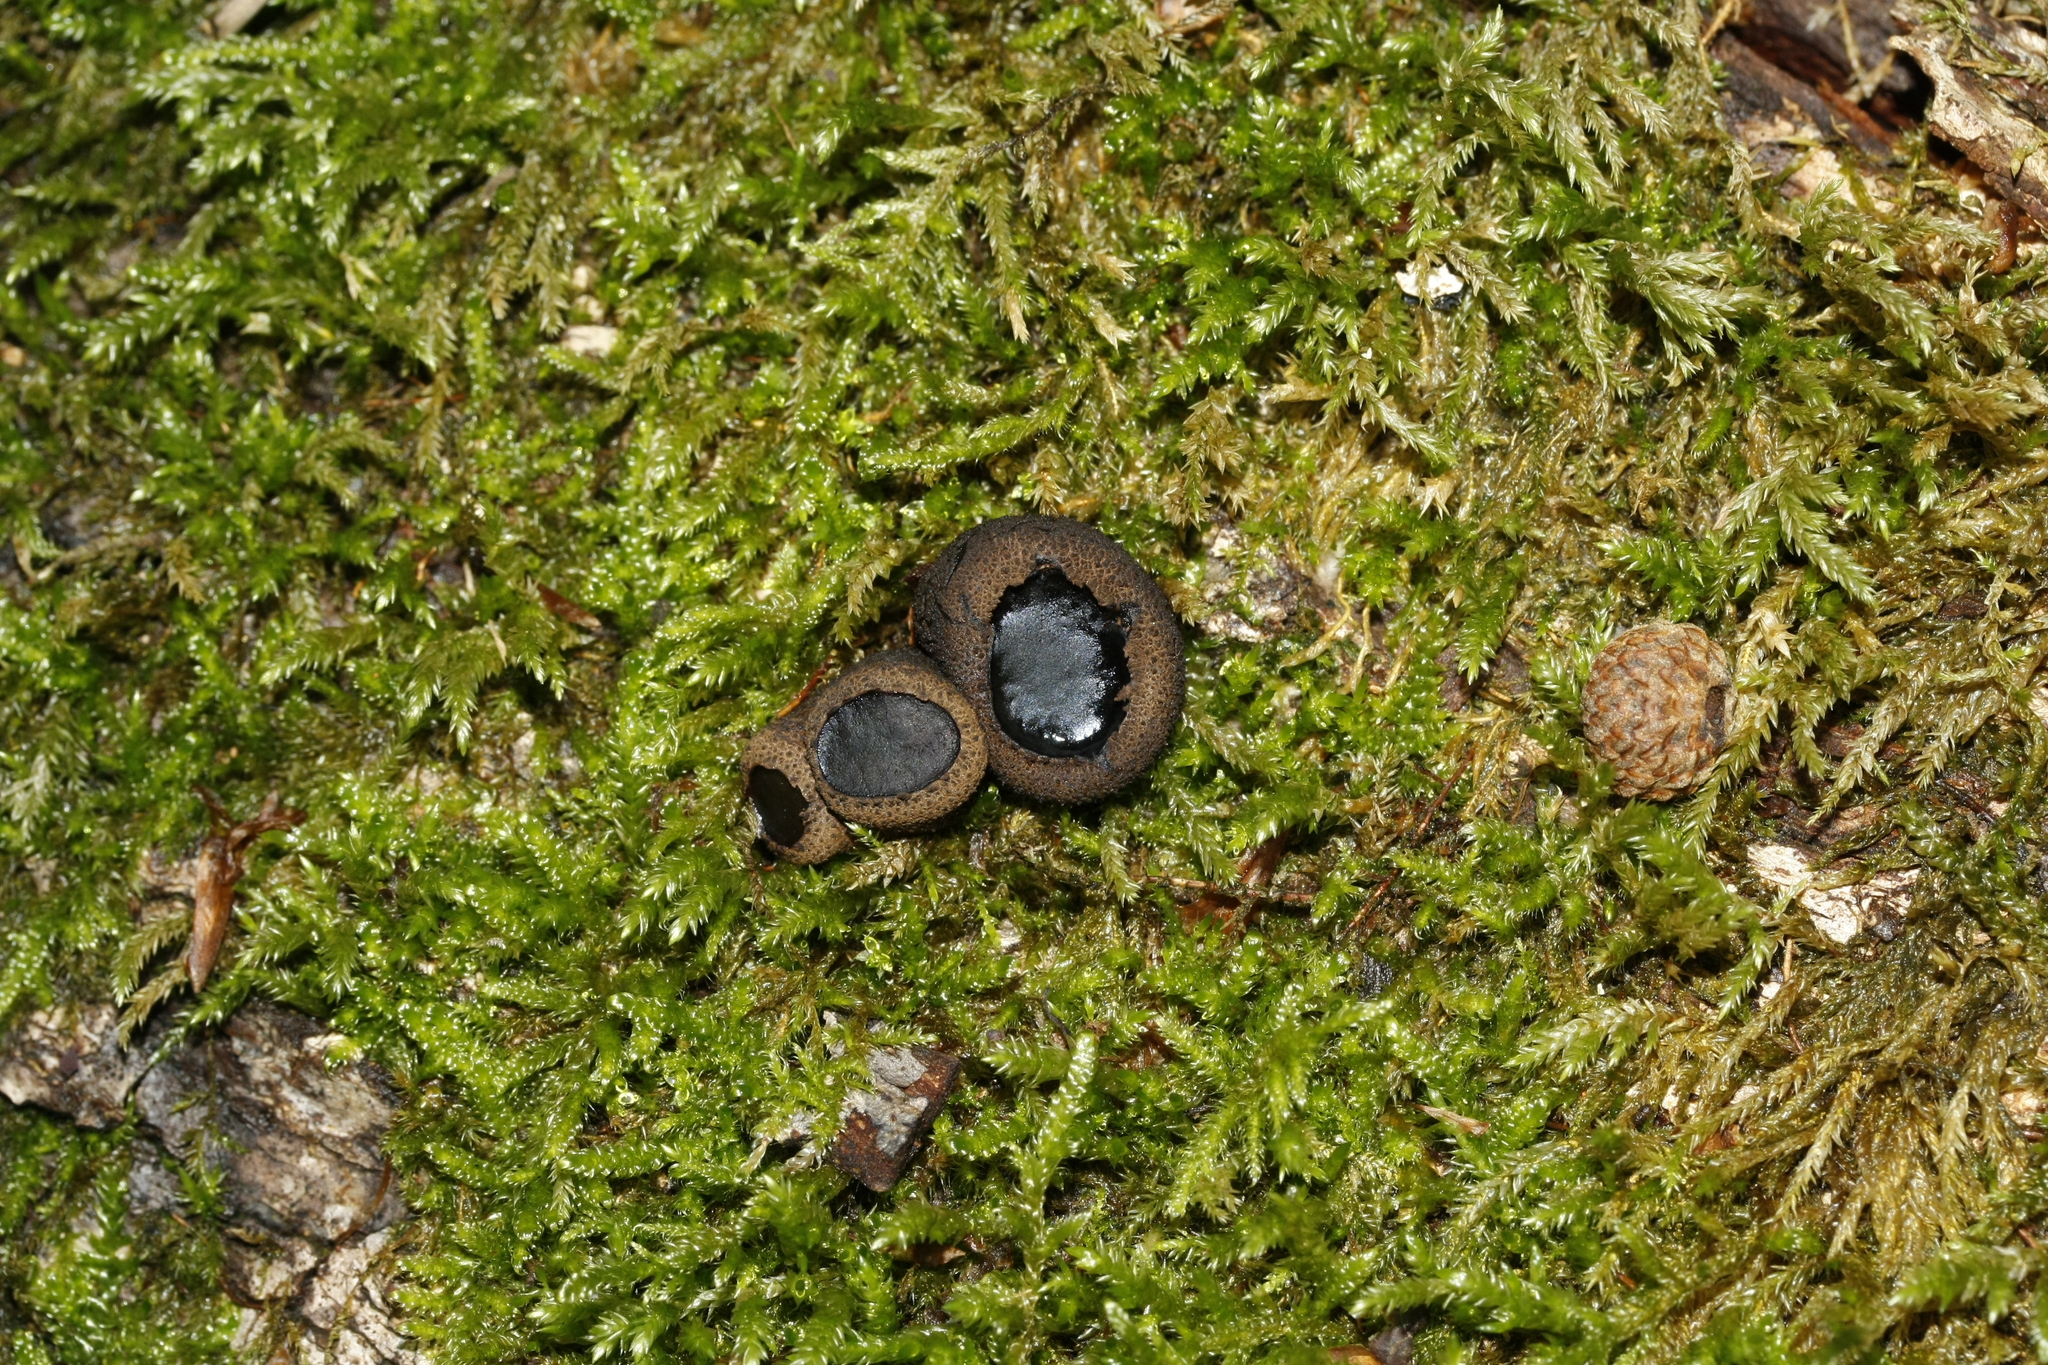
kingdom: Fungi
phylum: Ascomycota
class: Leotiomycetes
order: Phacidiales
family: Phacidiaceae
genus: Bulgaria
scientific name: Bulgaria inquinans
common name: Black bulgar
